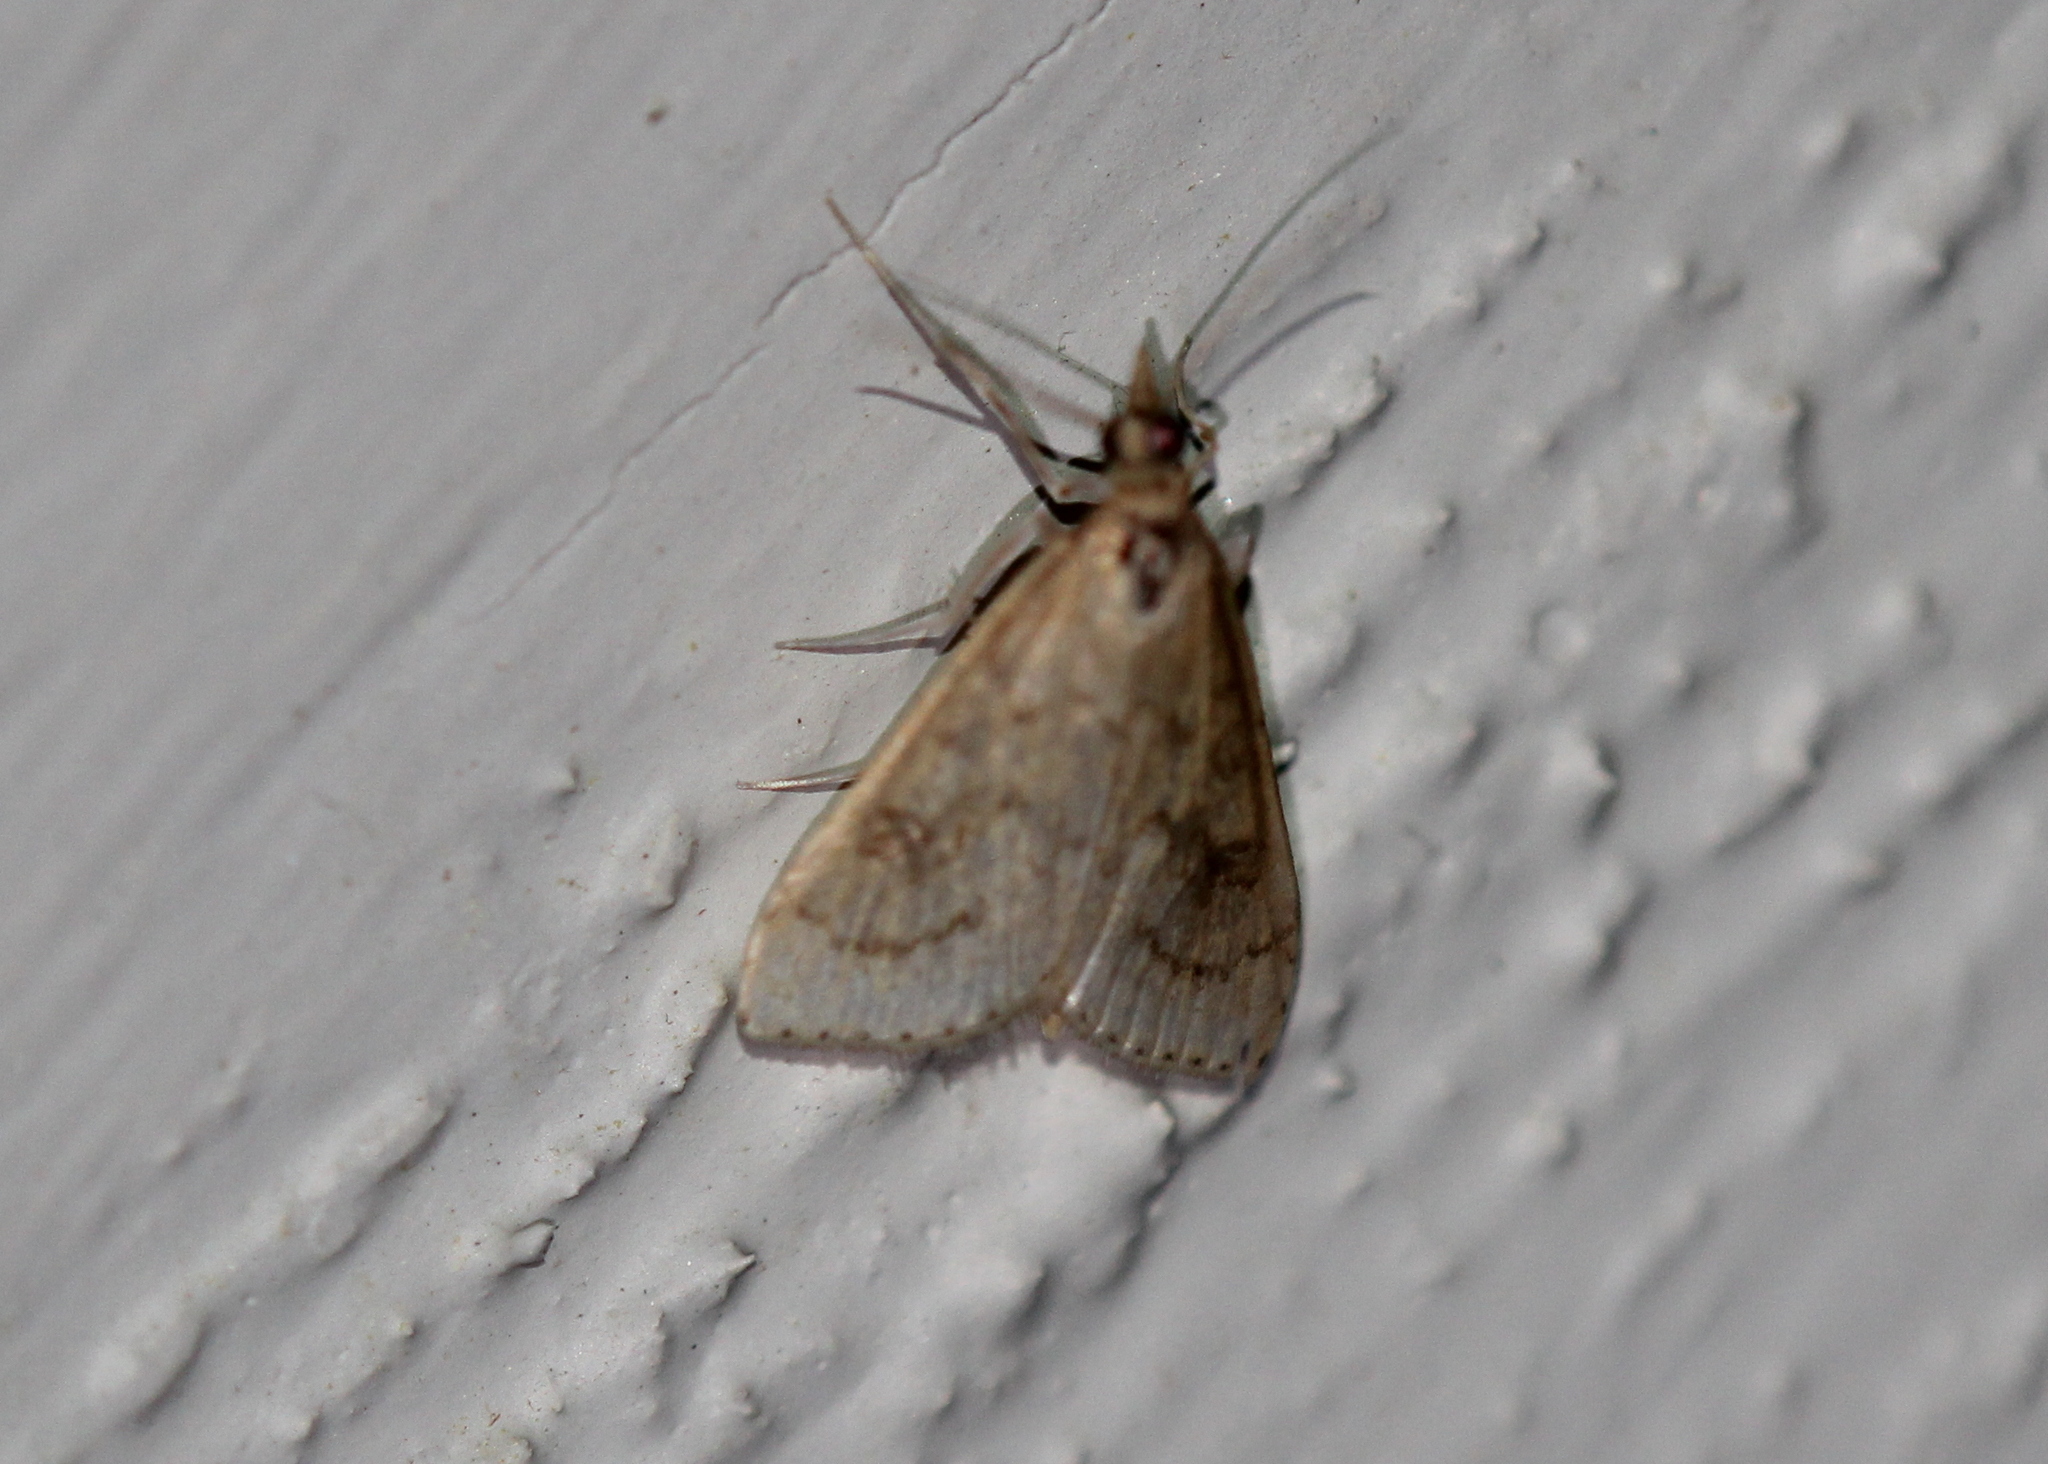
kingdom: Animalia
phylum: Arthropoda
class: Insecta
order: Lepidoptera
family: Crambidae
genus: Udea
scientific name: Udea rubigalis
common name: Celery leaftier moth
